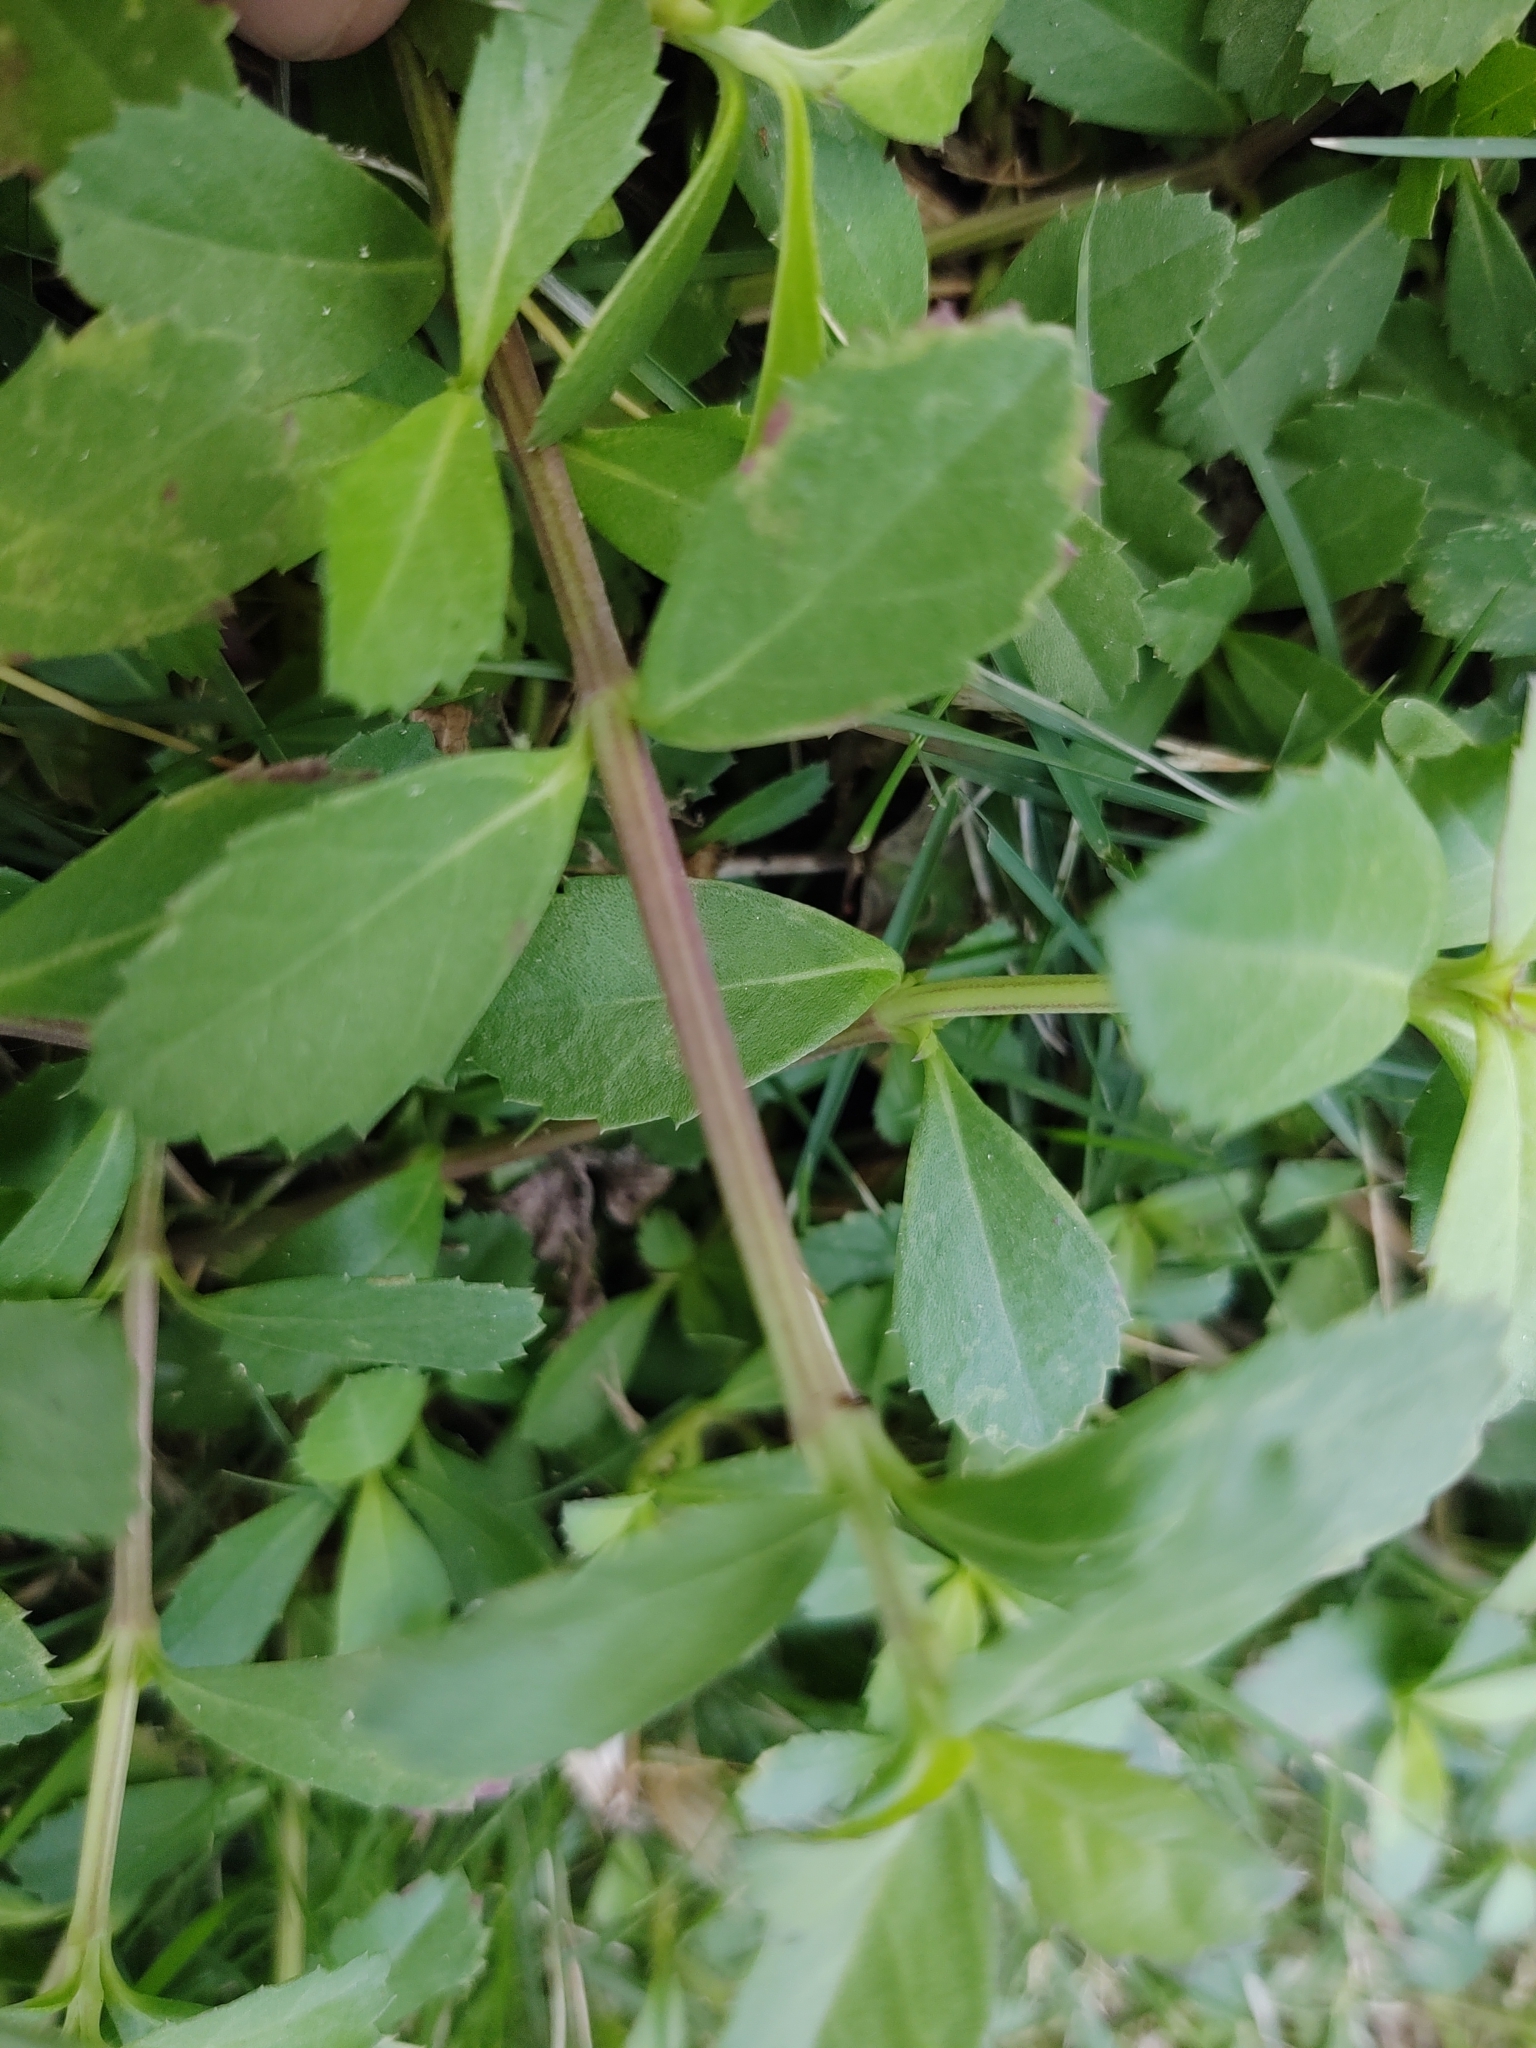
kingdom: Plantae
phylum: Tracheophyta
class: Magnoliopsida
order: Lamiales
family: Verbenaceae
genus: Phyla
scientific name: Phyla nodiflora
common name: Frogfruit
